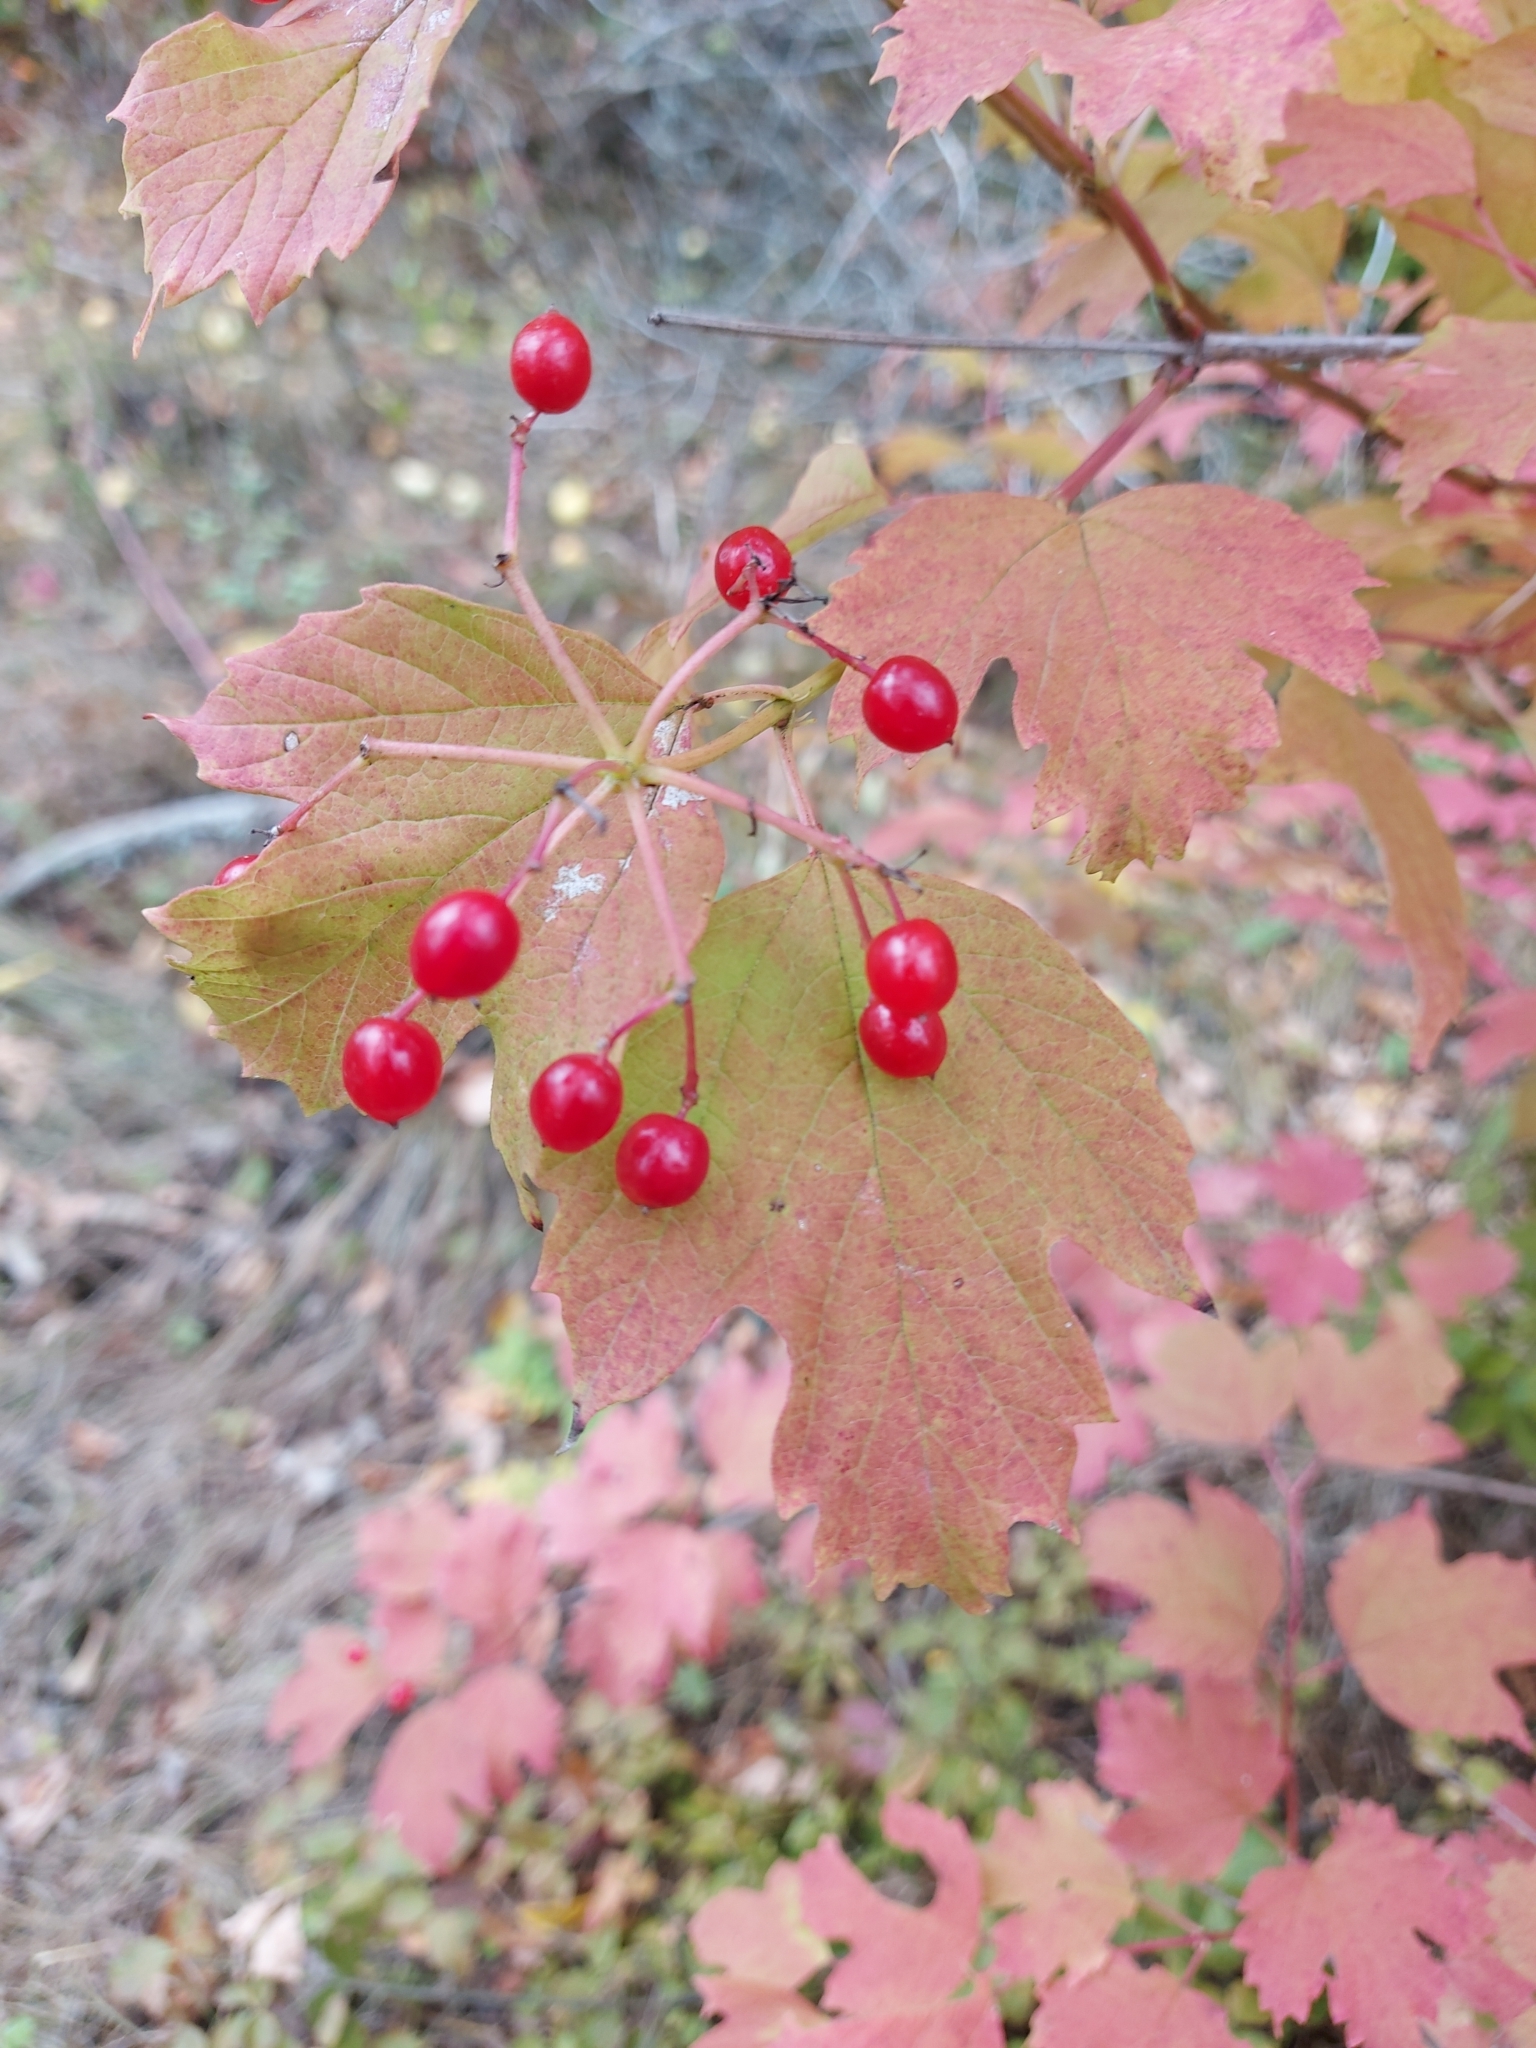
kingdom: Plantae
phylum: Tracheophyta
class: Magnoliopsida
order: Dipsacales
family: Viburnaceae
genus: Viburnum
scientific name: Viburnum opulus
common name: Guelder-rose
